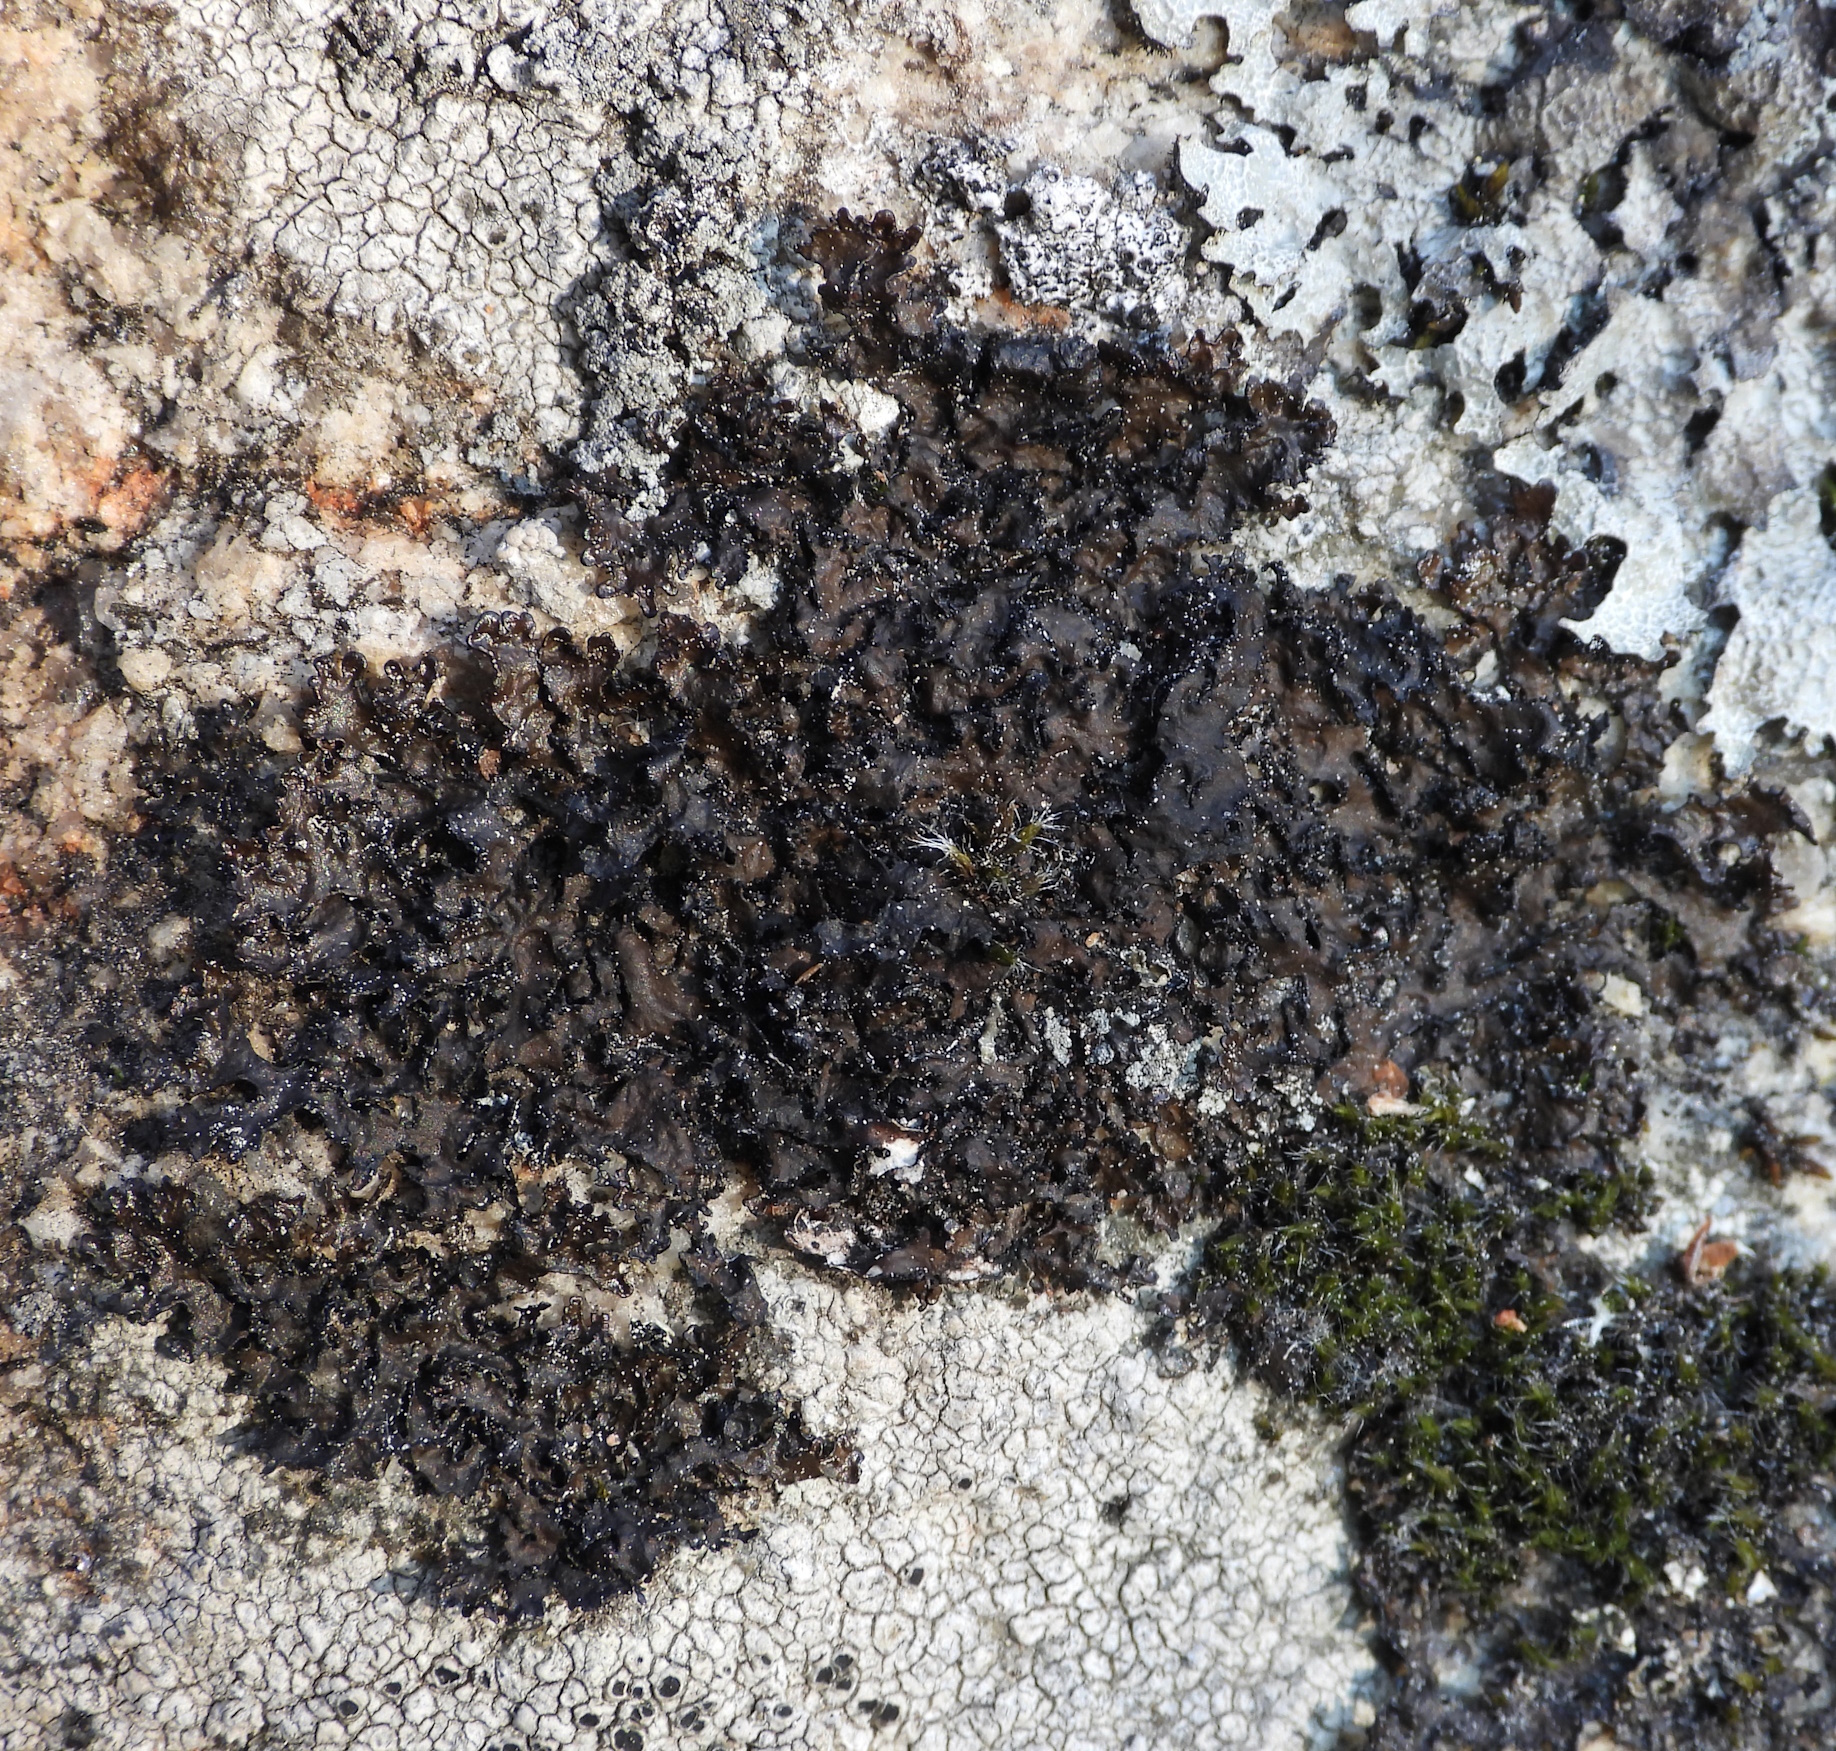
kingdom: Fungi
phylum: Ascomycota
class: Lecanoromycetes
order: Lecanorales
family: Parmeliaceae
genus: Melanelia
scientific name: Melanelia hepatizon
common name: Rimmed camouflage lichen
